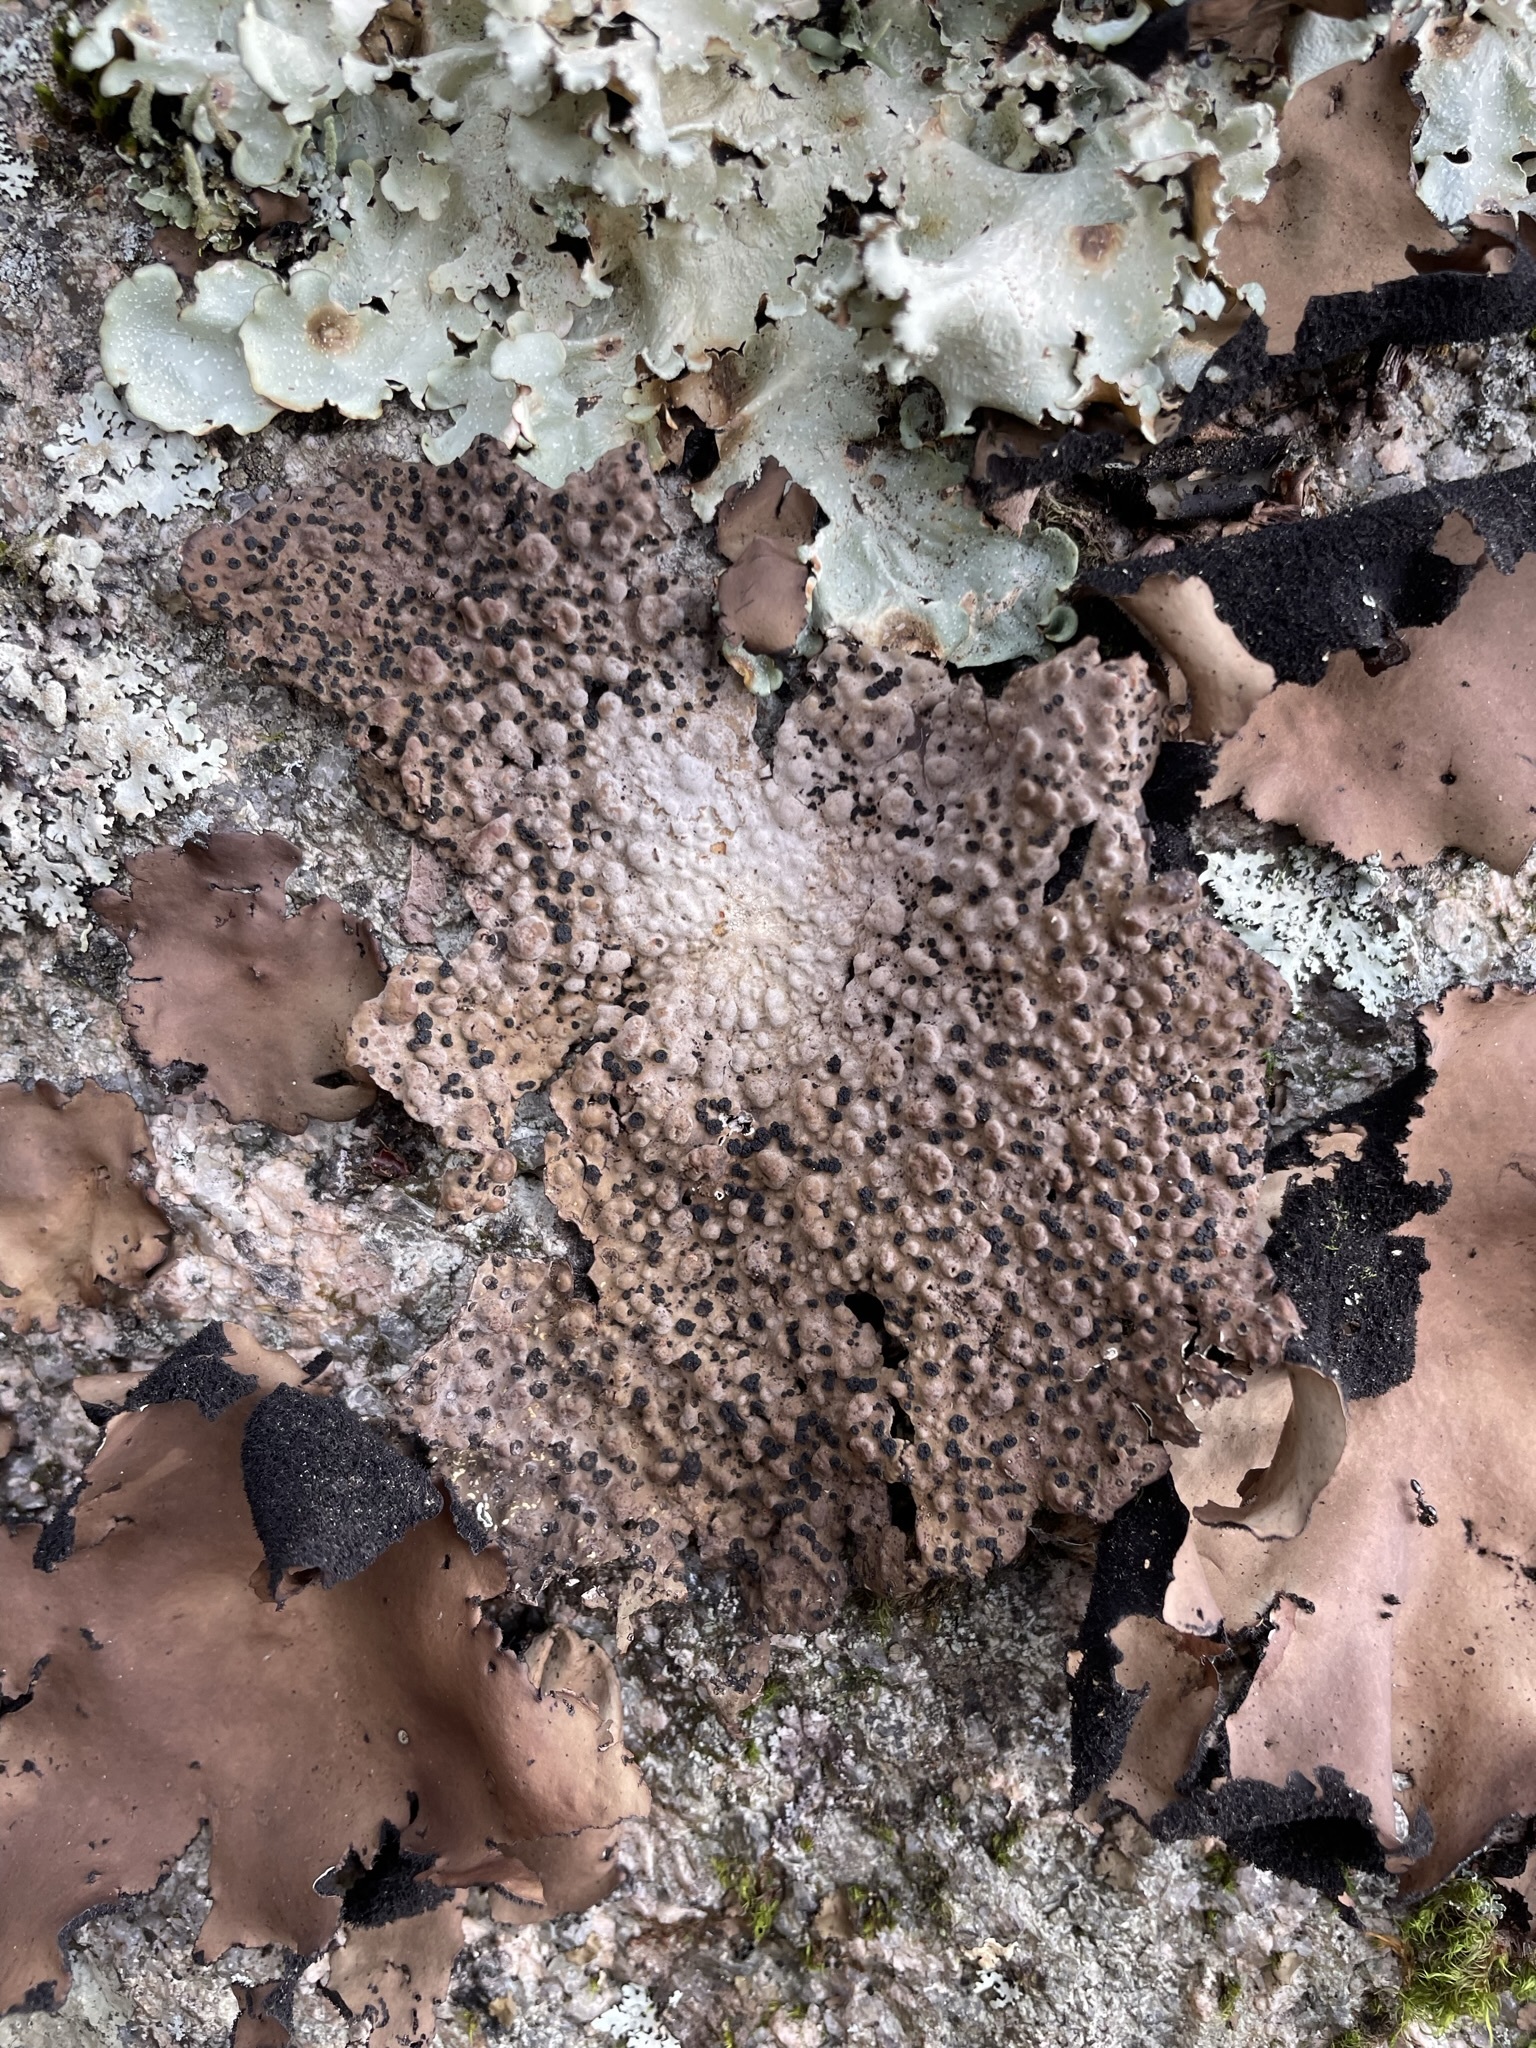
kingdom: Fungi
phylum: Ascomycota
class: Lecanoromycetes
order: Umbilicariales
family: Umbilicariaceae
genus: Lasallia
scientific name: Lasallia papulosa
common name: Common toadskin lichen
